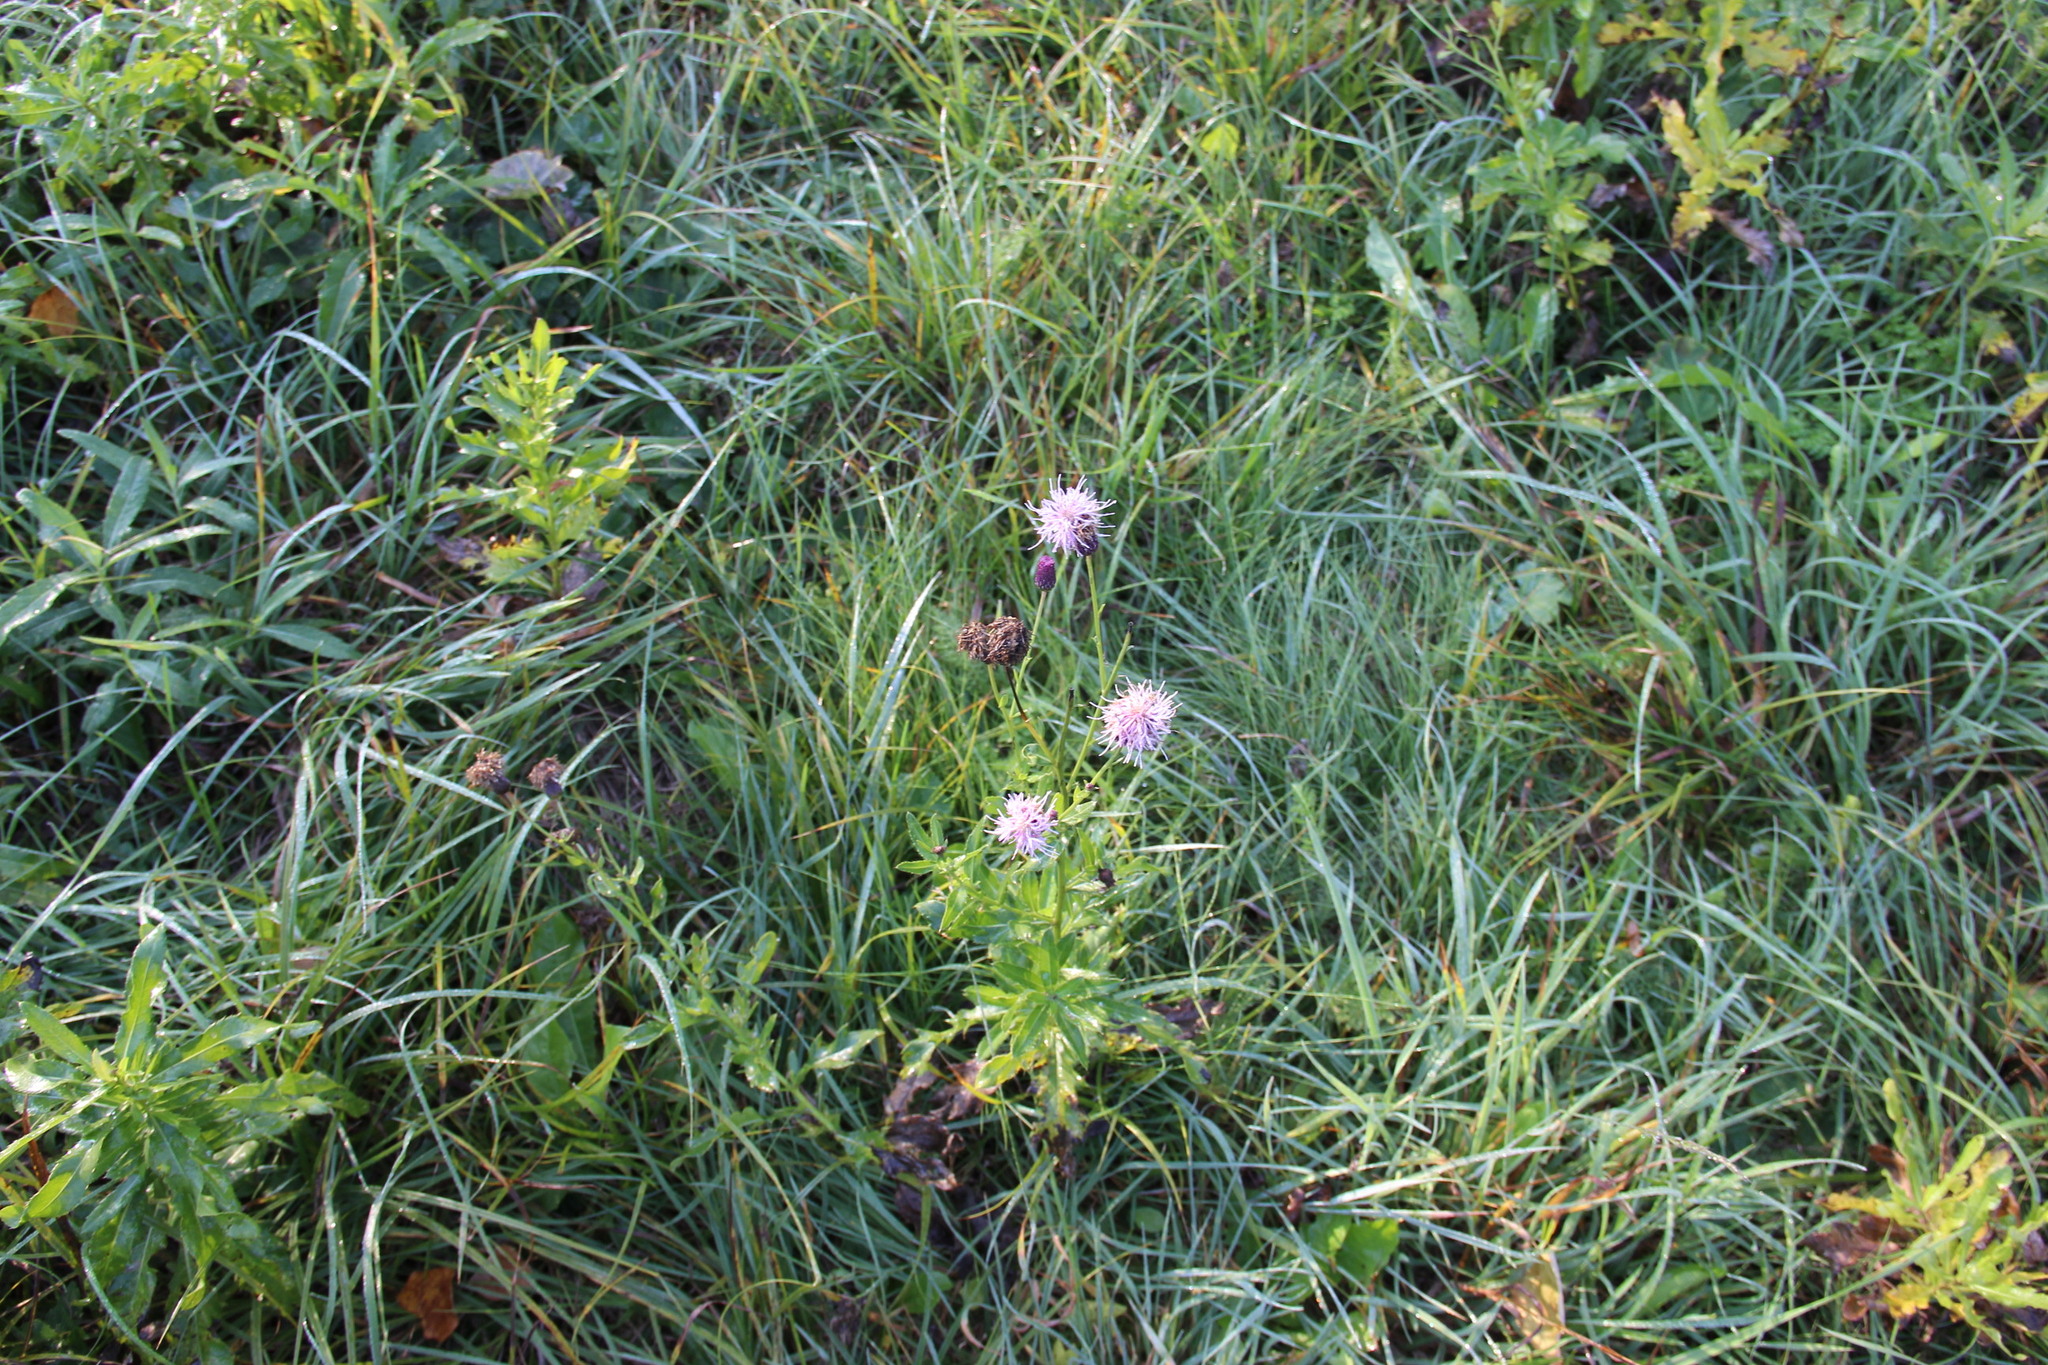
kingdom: Plantae
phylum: Tracheophyta
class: Magnoliopsida
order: Asterales
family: Asteraceae
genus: Cirsium
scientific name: Cirsium arvense
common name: Creeping thistle
